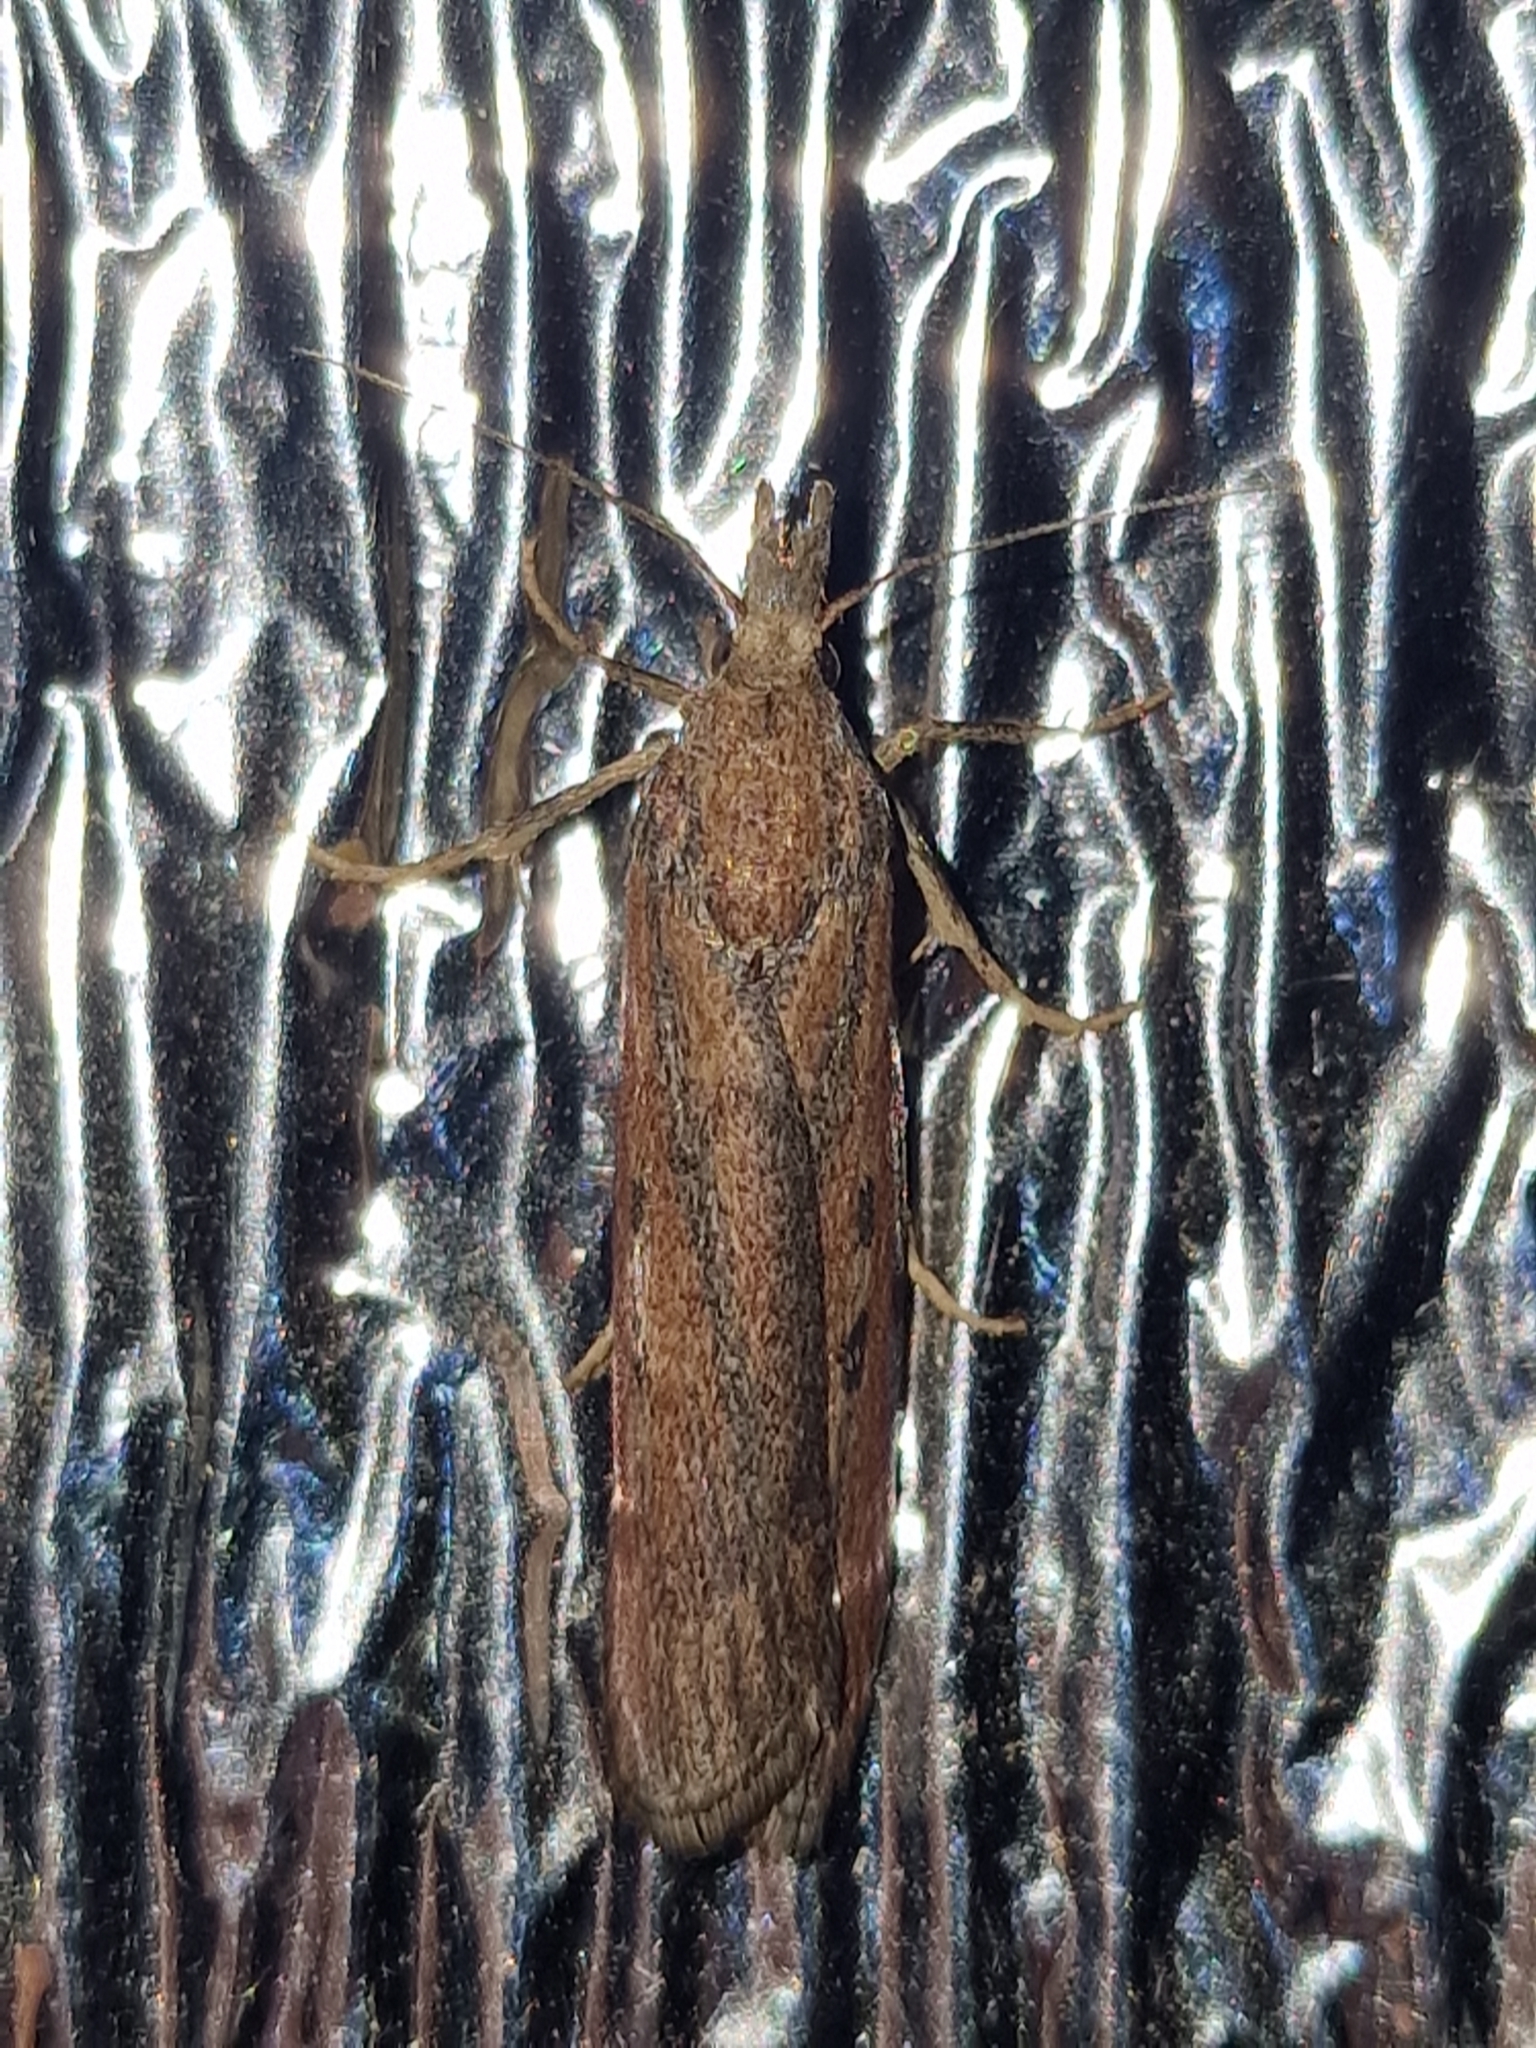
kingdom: Animalia
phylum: Arthropoda
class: Insecta
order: Lepidoptera
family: Pyralidae
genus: Aphomia
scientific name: Aphomia zelleri
